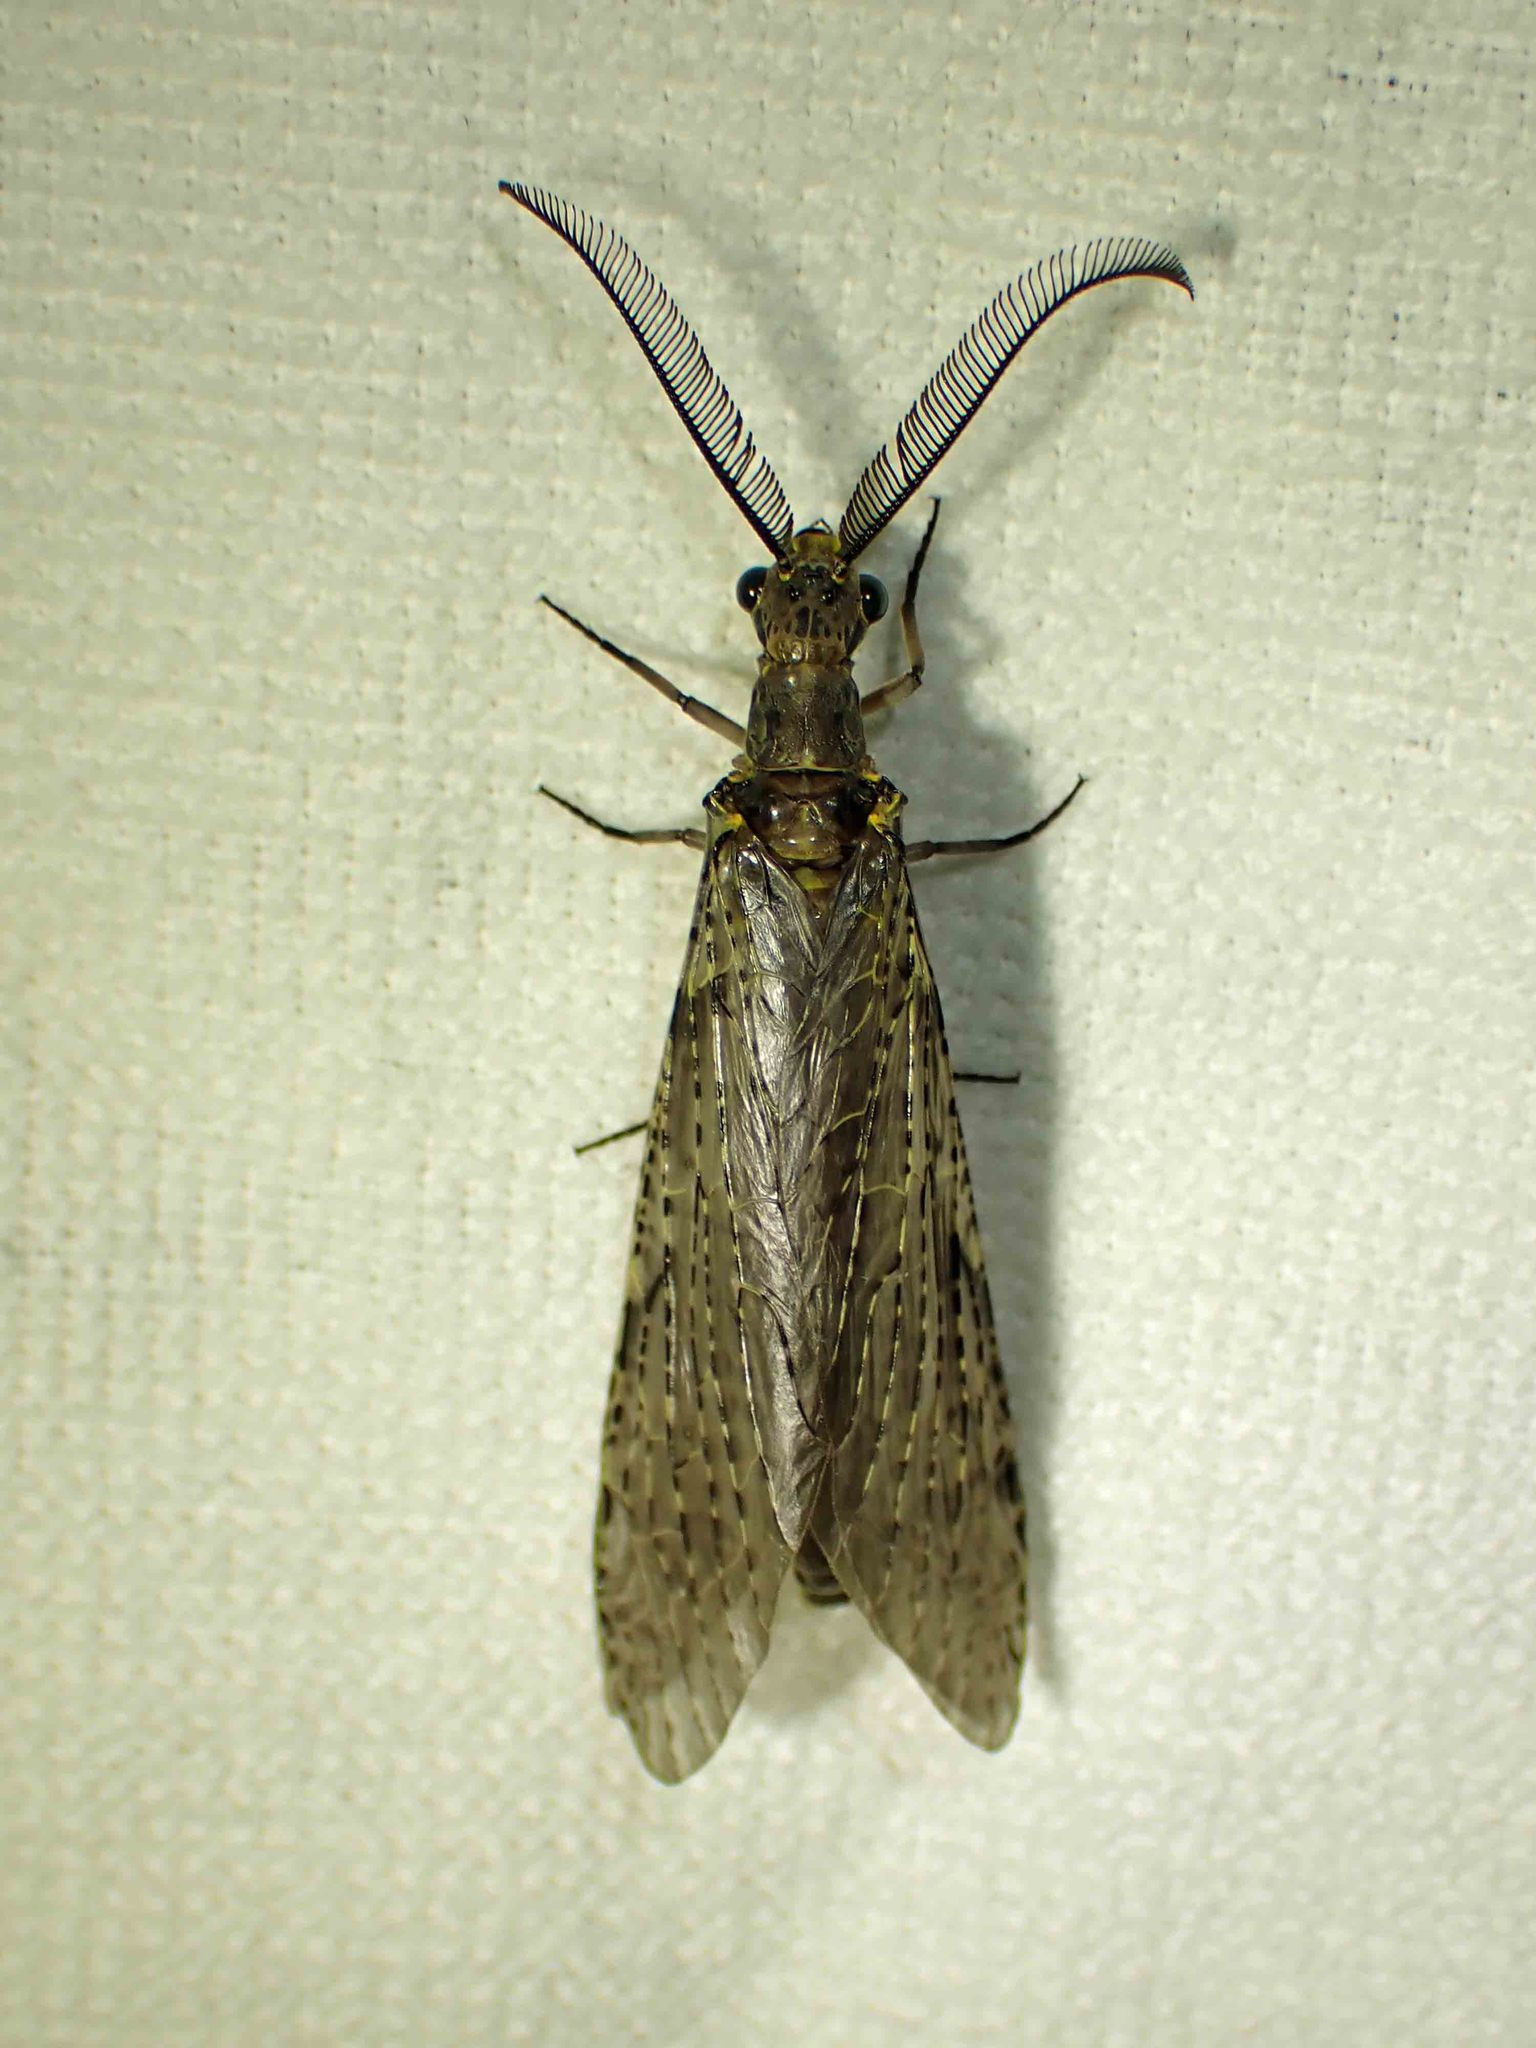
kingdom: Animalia
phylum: Arthropoda
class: Insecta
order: Megaloptera
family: Corydalidae
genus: Chauliodes
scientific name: Chauliodes rastricornis
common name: Spring fishfly
